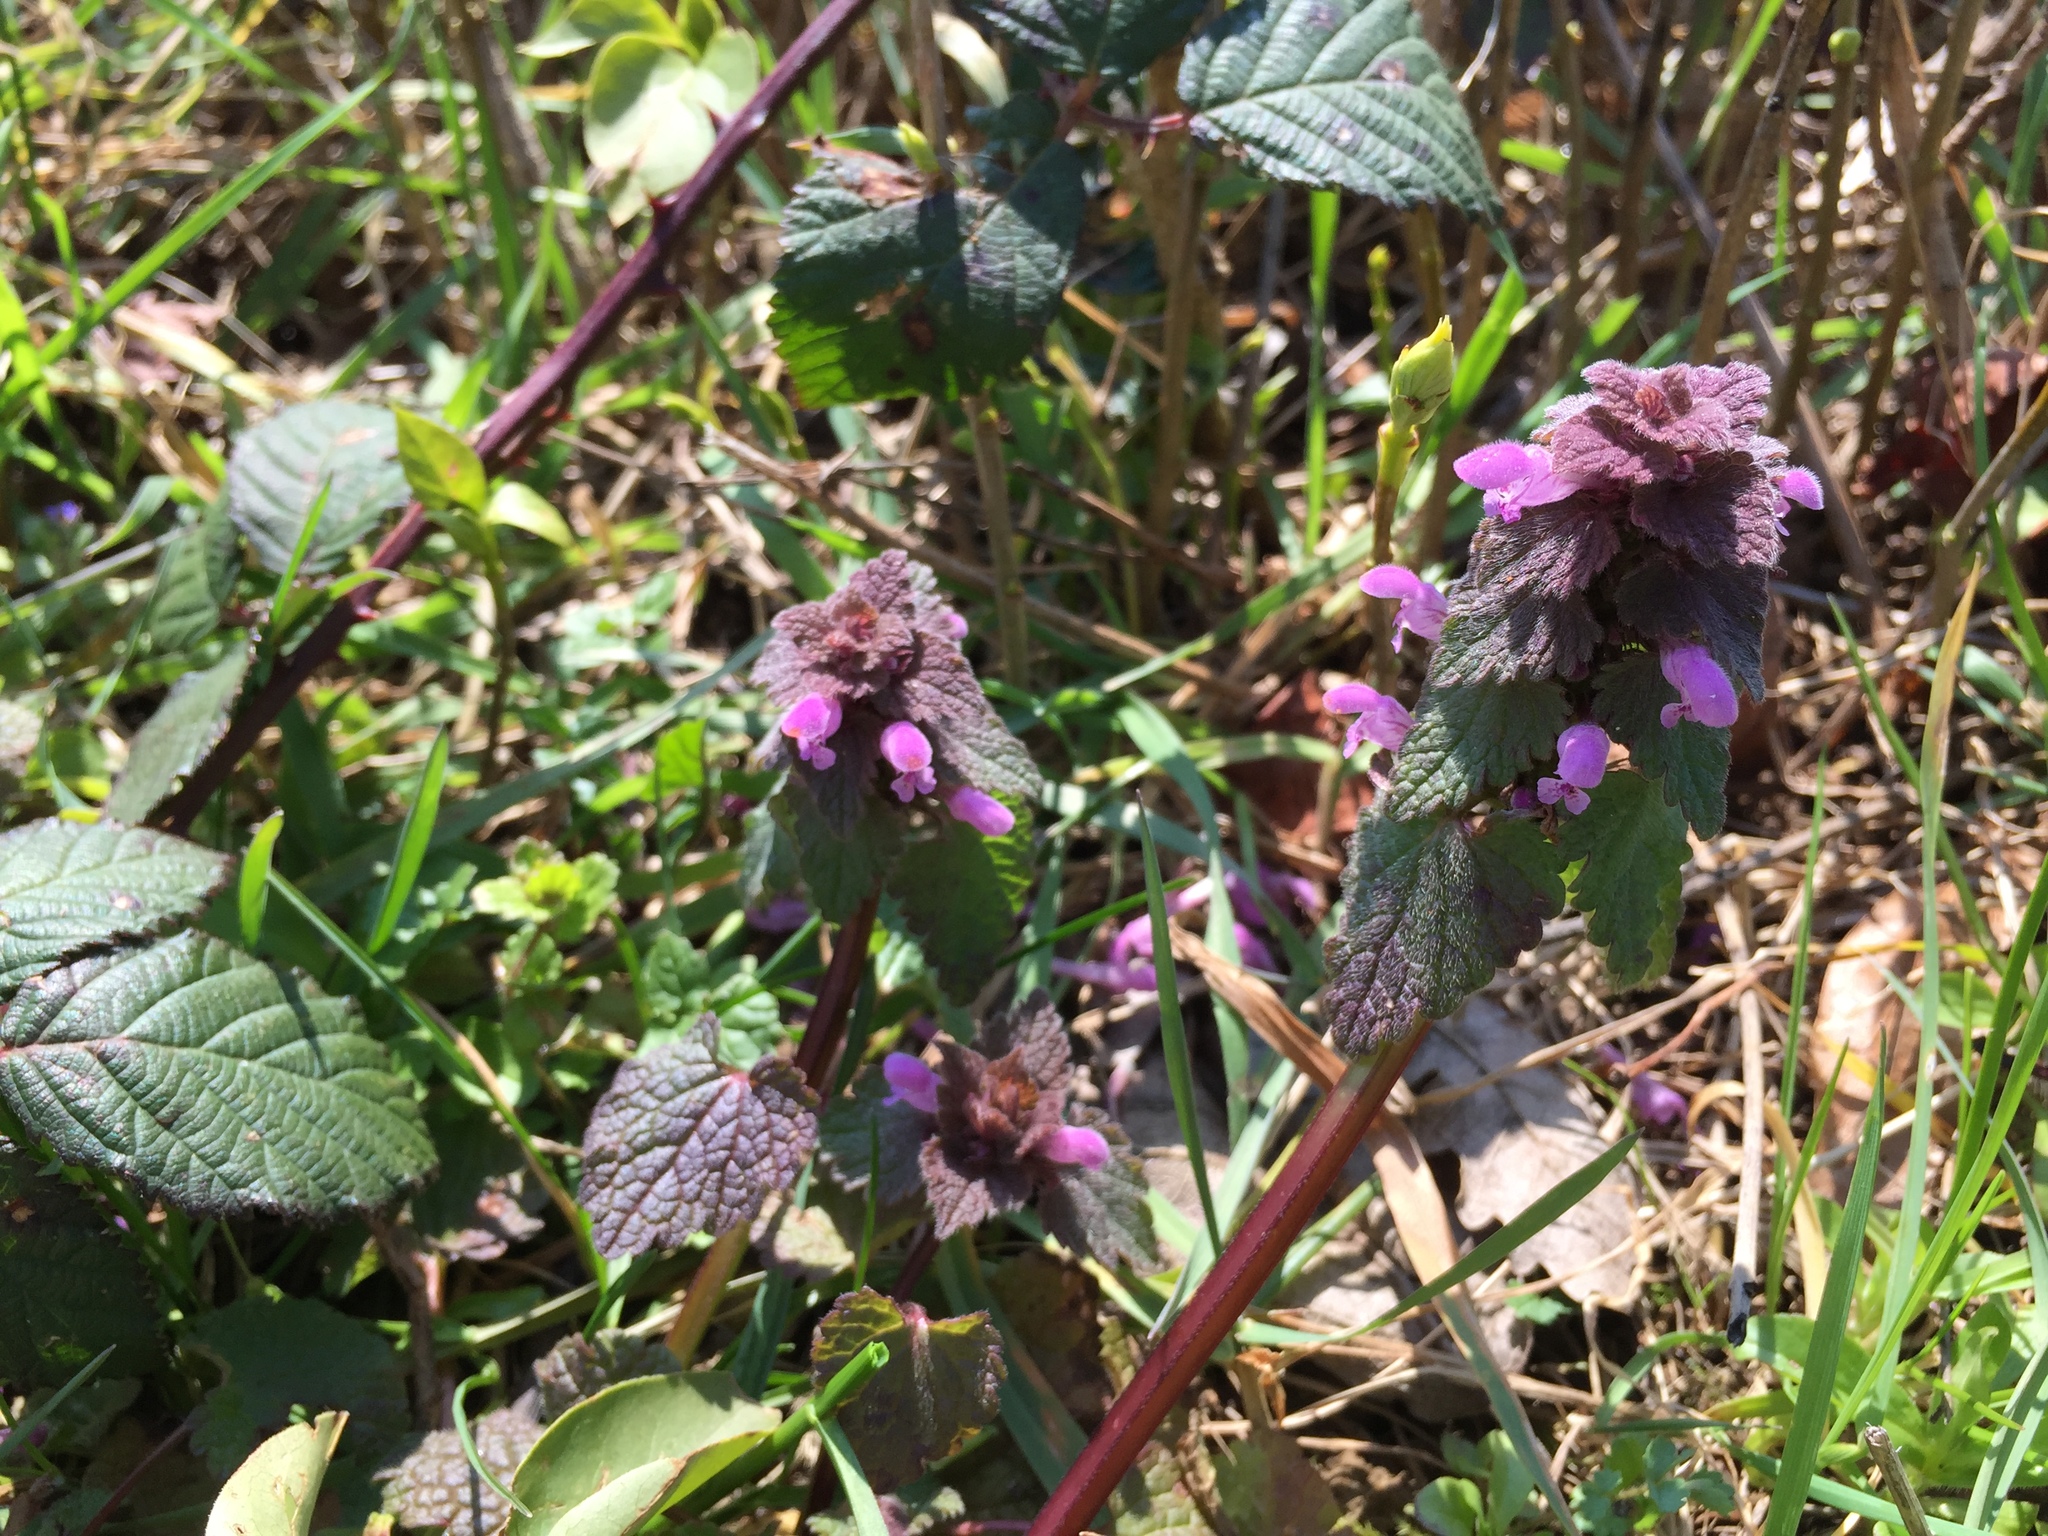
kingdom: Plantae
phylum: Tracheophyta
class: Magnoliopsida
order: Lamiales
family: Lamiaceae
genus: Lamium
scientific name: Lamium purpureum
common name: Red dead-nettle
